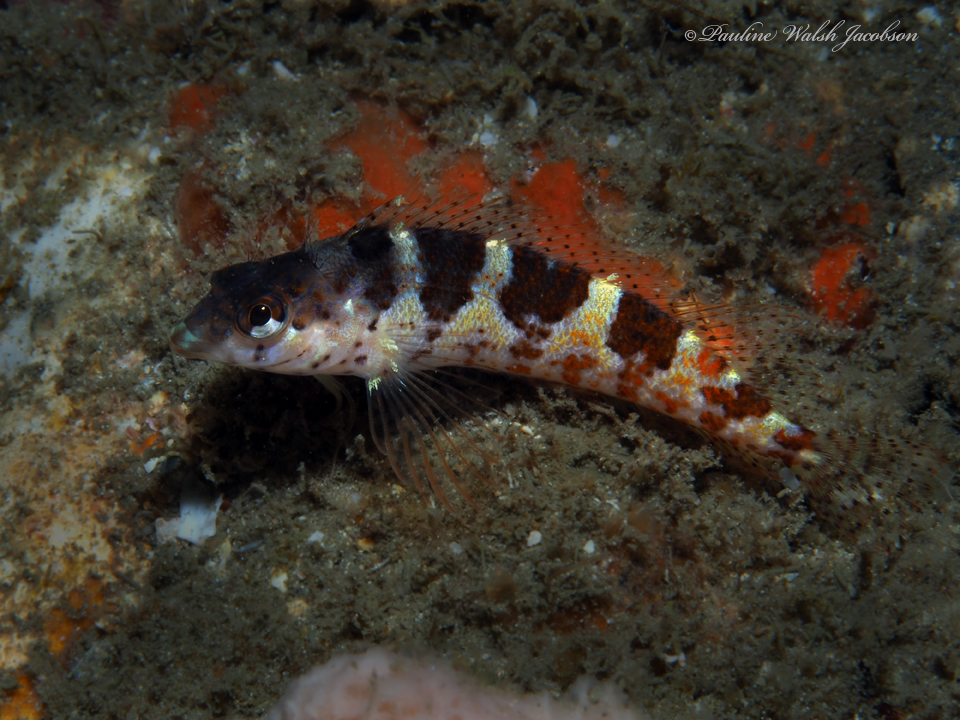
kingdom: Animalia
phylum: Chordata
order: Perciformes
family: Labrisomidae
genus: Malacoctenus
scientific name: Malacoctenus triangulatus
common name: Saddled blenny
